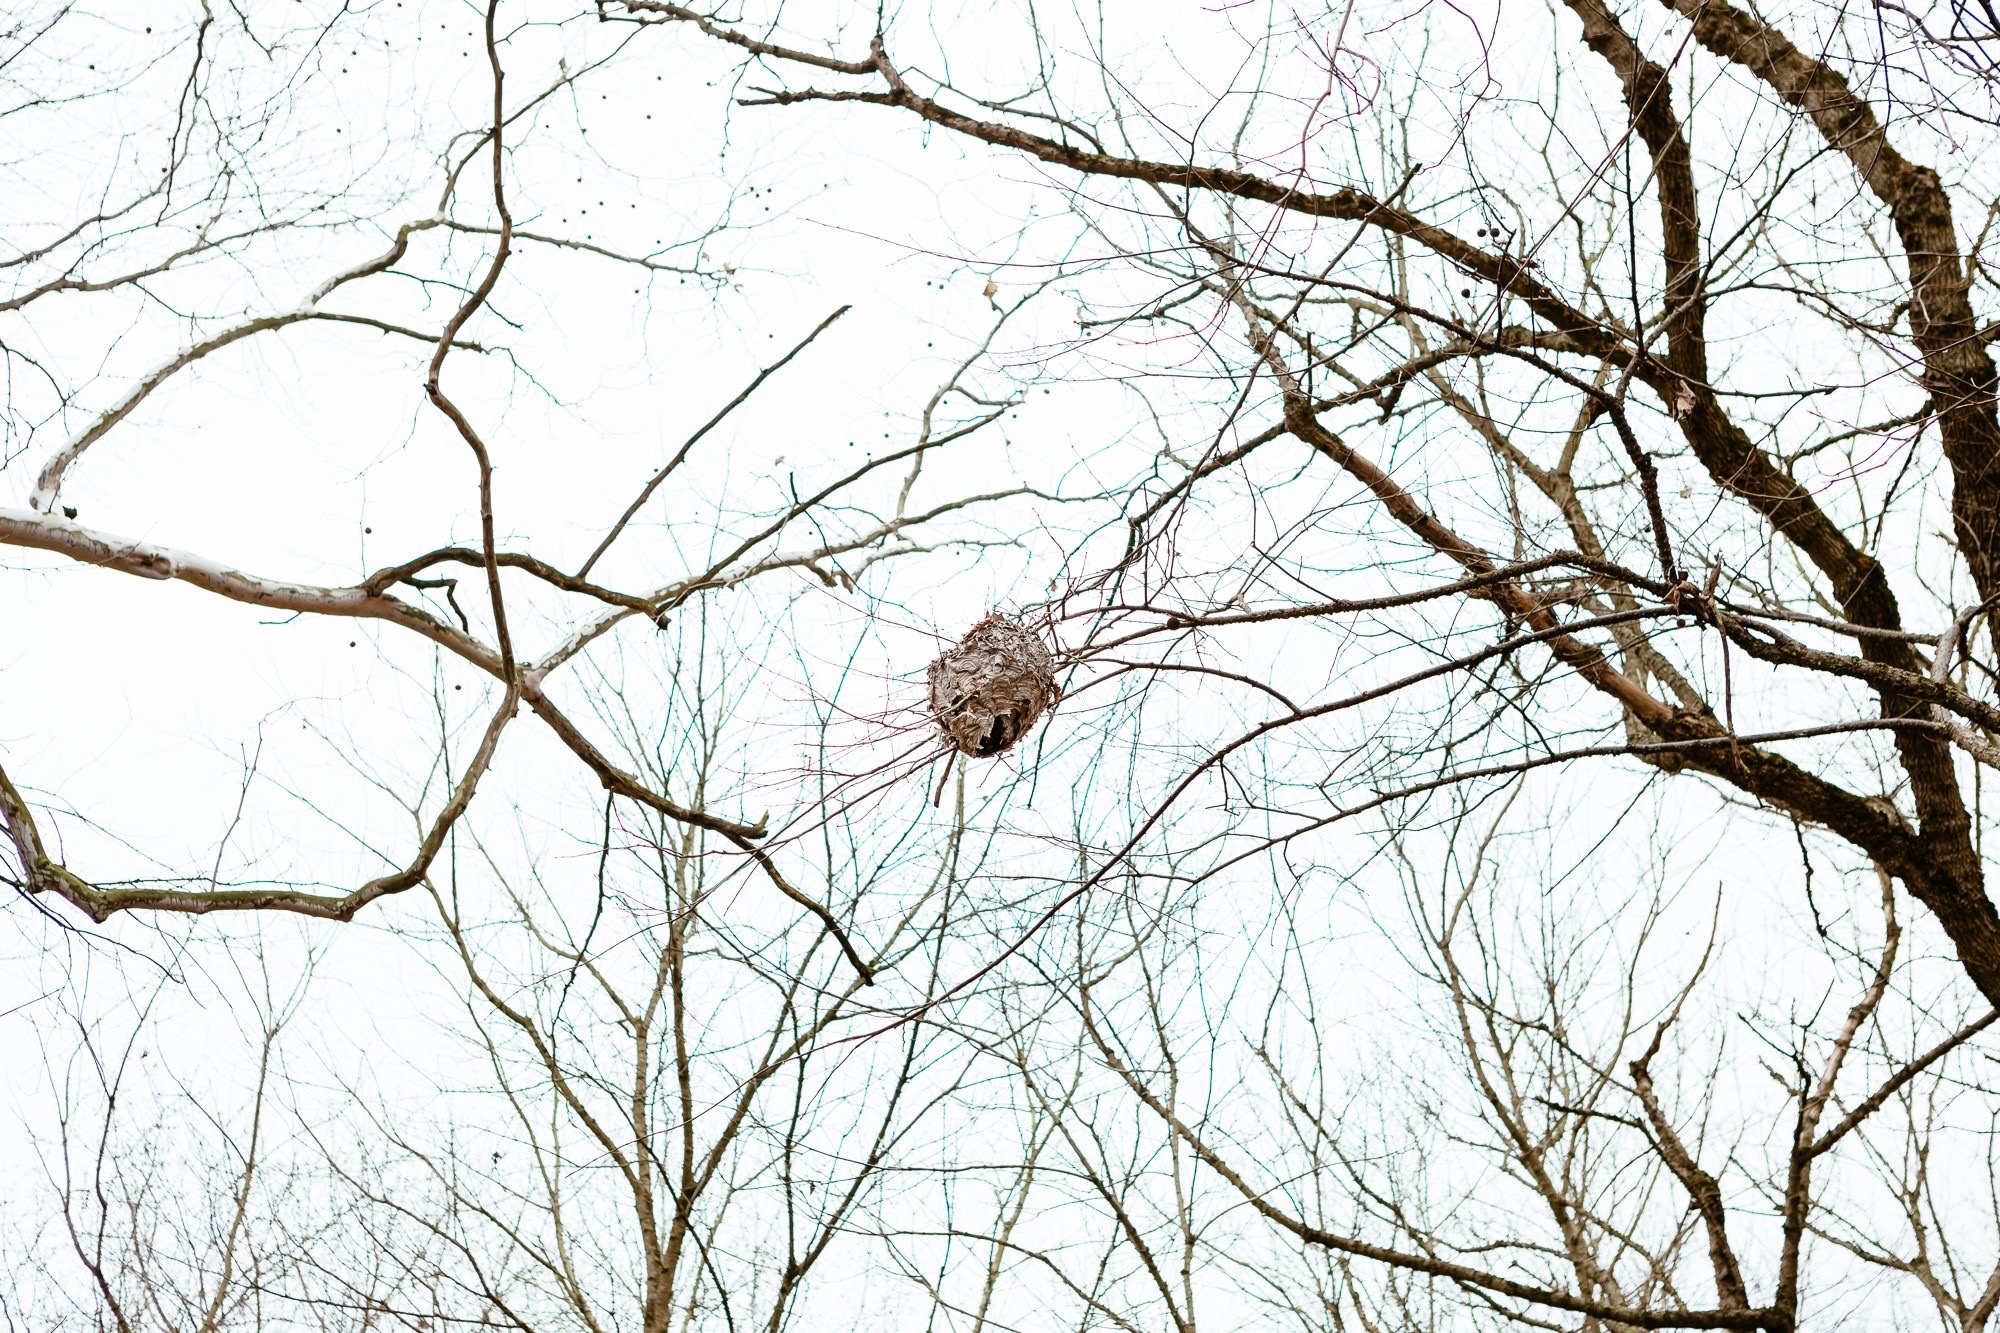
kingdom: Animalia
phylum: Arthropoda
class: Insecta
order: Hymenoptera
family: Vespidae
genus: Dolichovespula
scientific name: Dolichovespula maculata
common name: Bald-faced hornet
